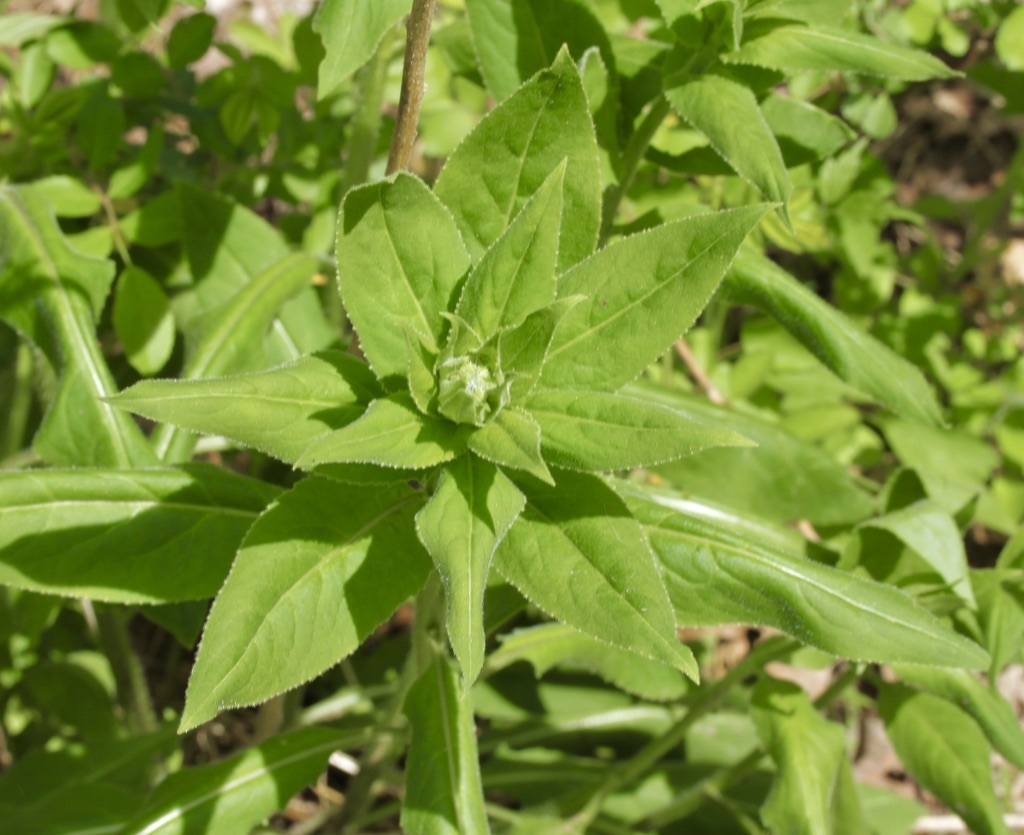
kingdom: Plantae
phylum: Tracheophyta
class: Magnoliopsida
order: Brassicales
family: Brassicaceae
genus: Hesperis
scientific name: Hesperis matronalis
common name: Dame's-violet
